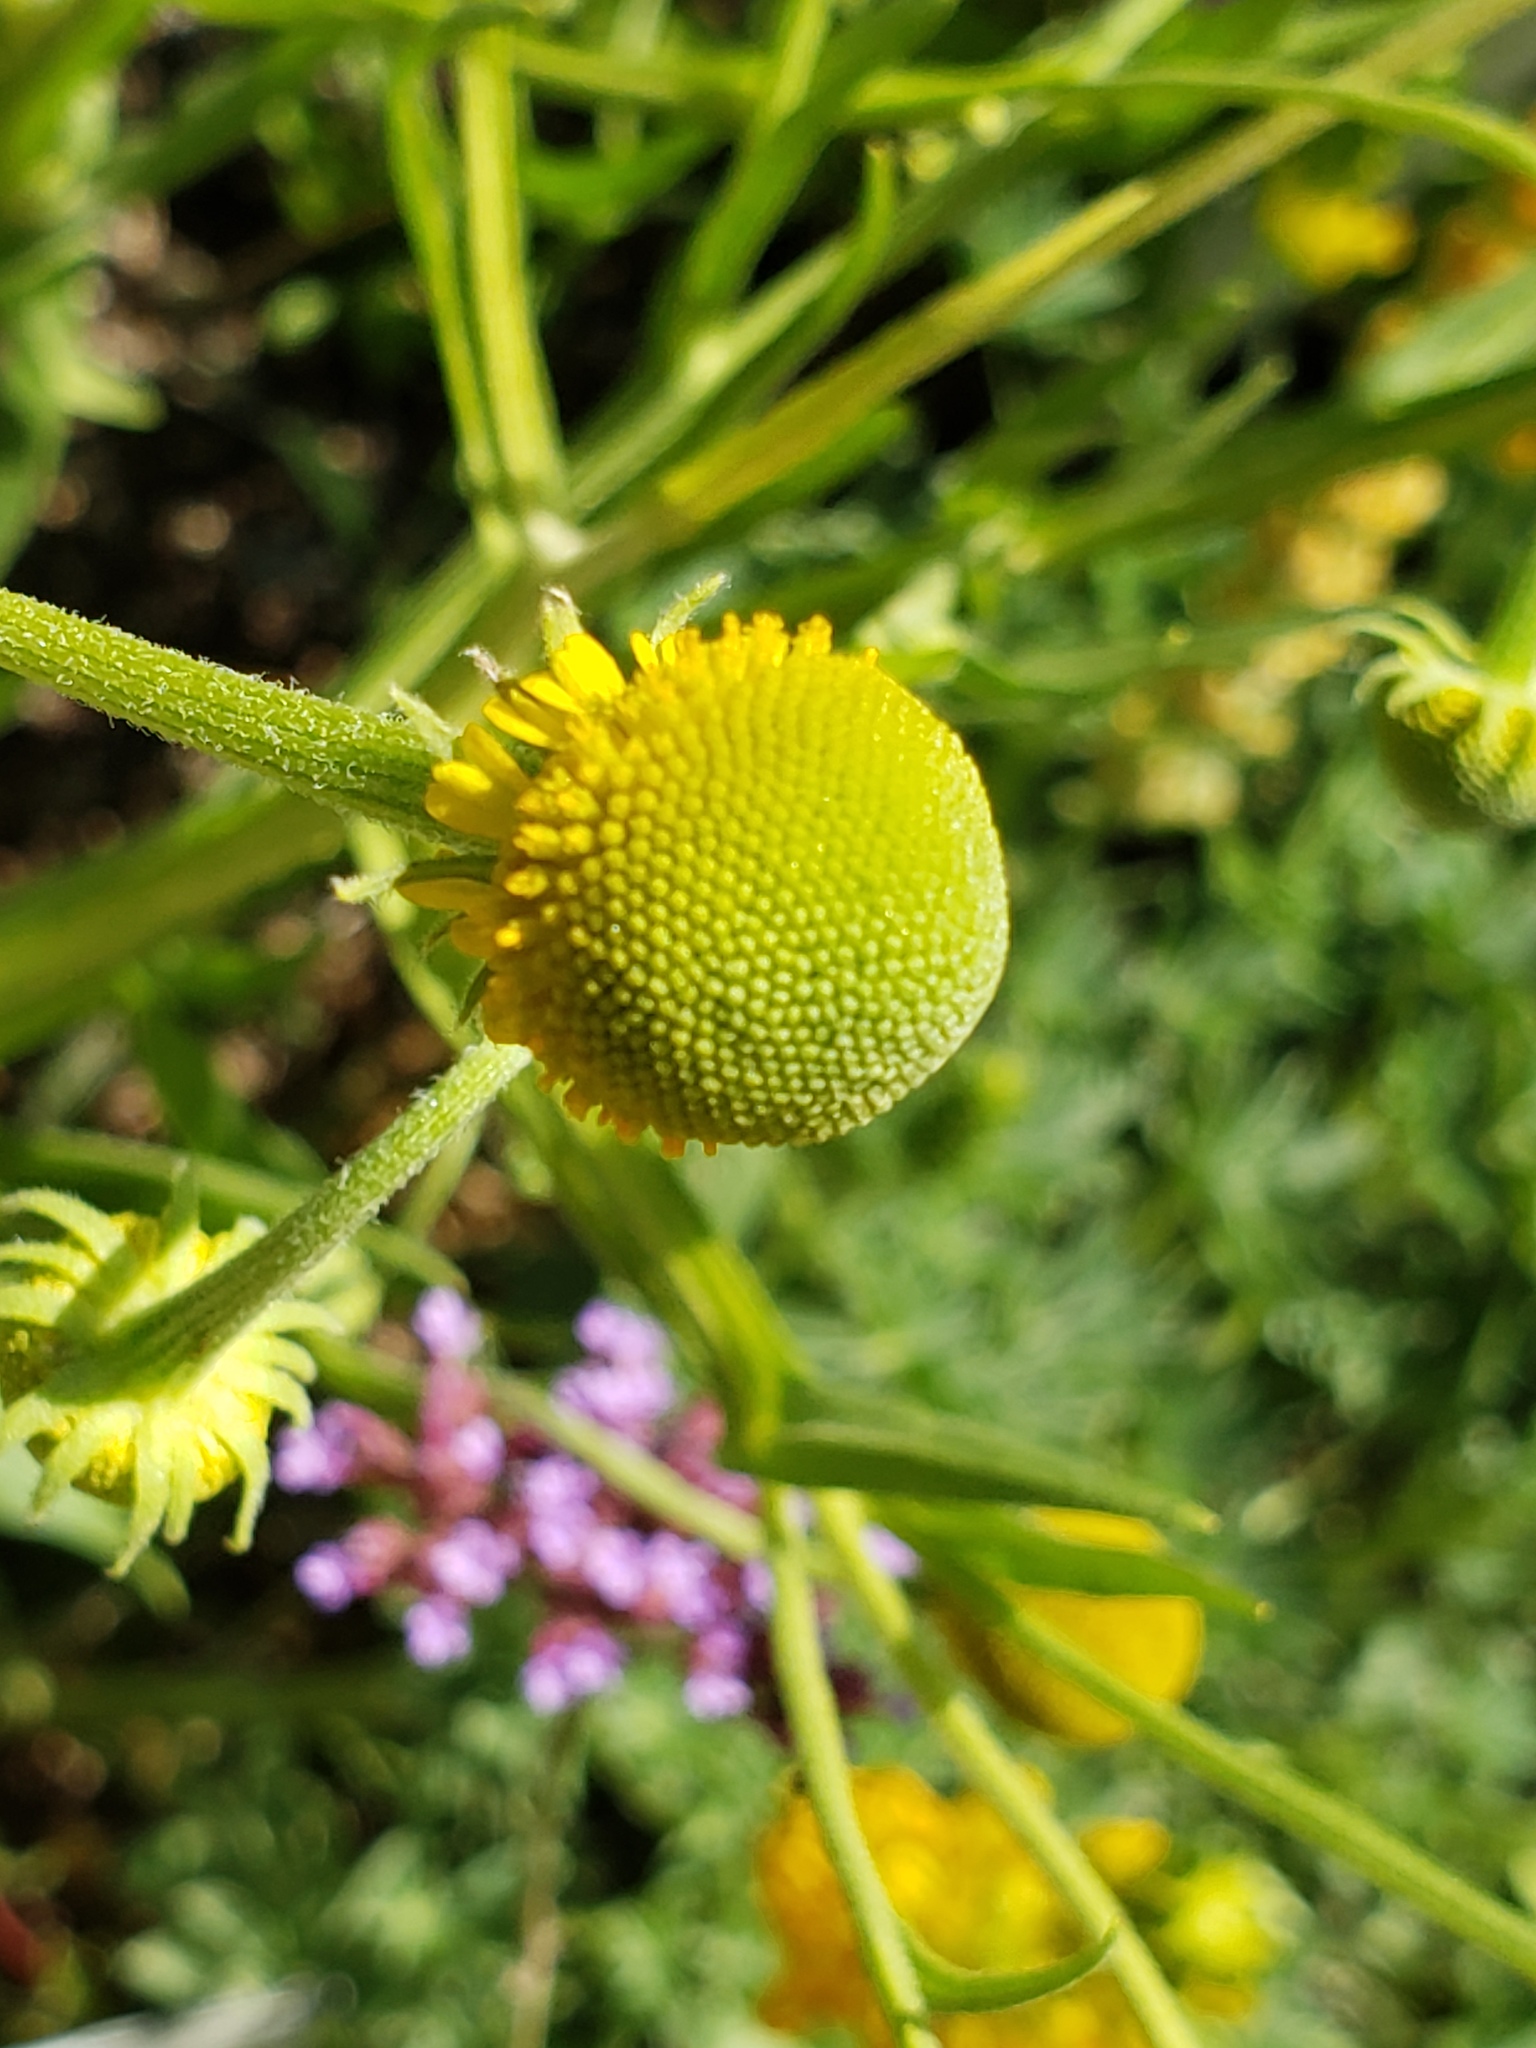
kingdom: Plantae
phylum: Tracheophyta
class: Magnoliopsida
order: Asterales
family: Asteraceae
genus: Helenium
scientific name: Helenium puberulum
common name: Sneezewort
